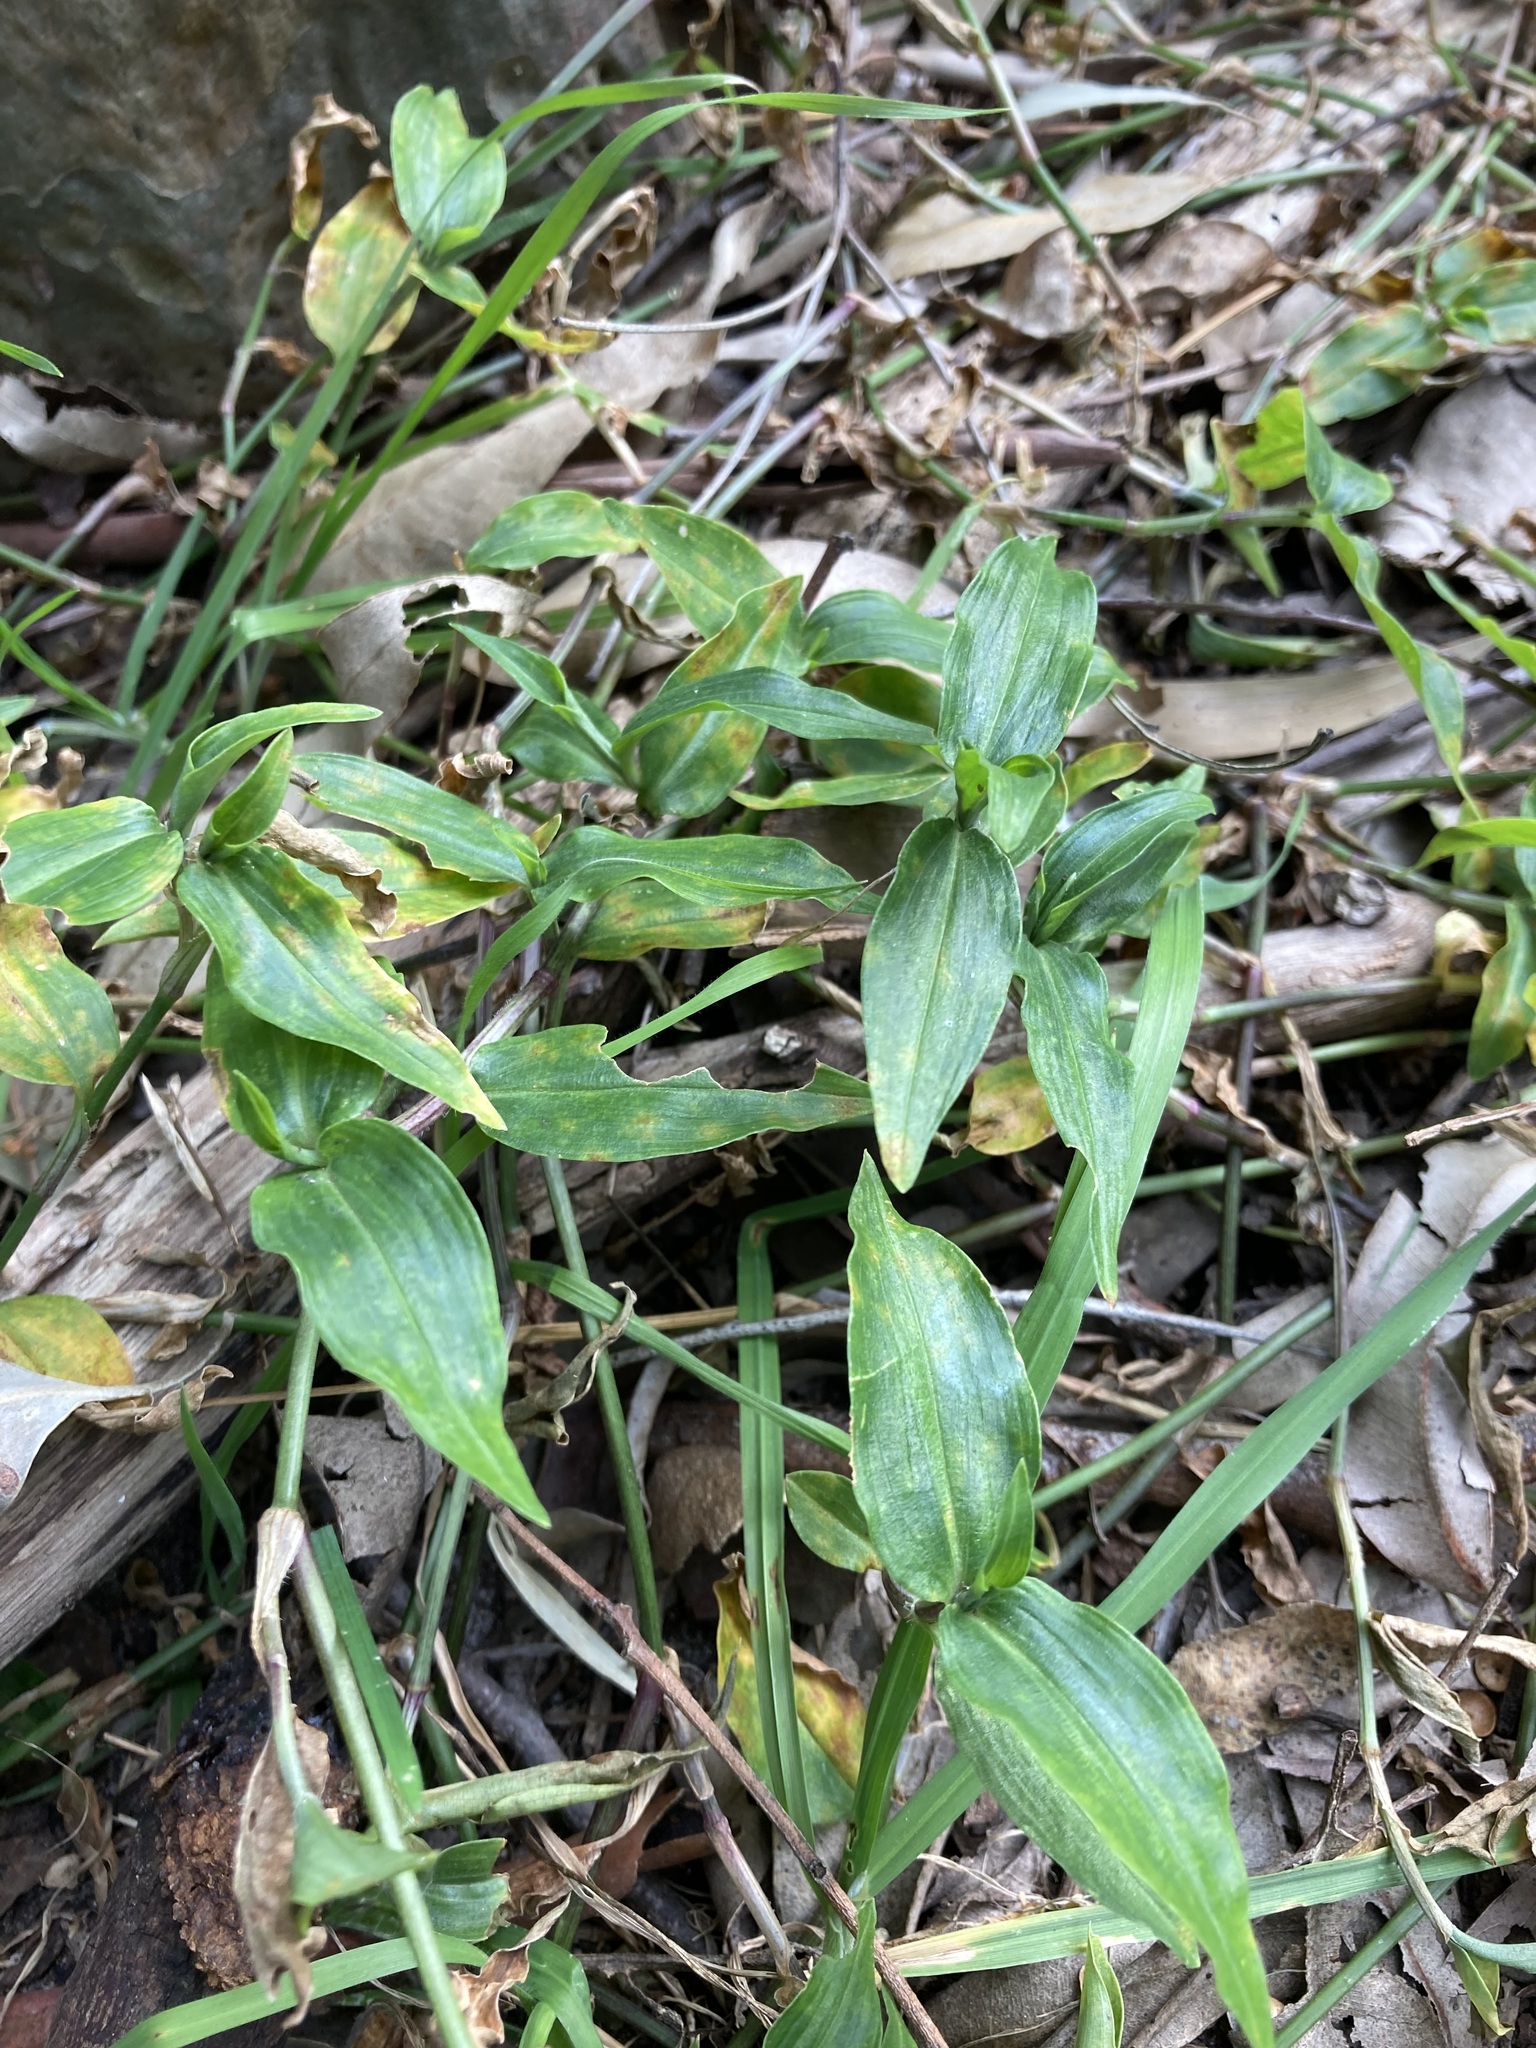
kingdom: Plantae
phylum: Tracheophyta
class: Liliopsida
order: Commelinales
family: Commelinaceae
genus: Commelina
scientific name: Commelina cyanea
